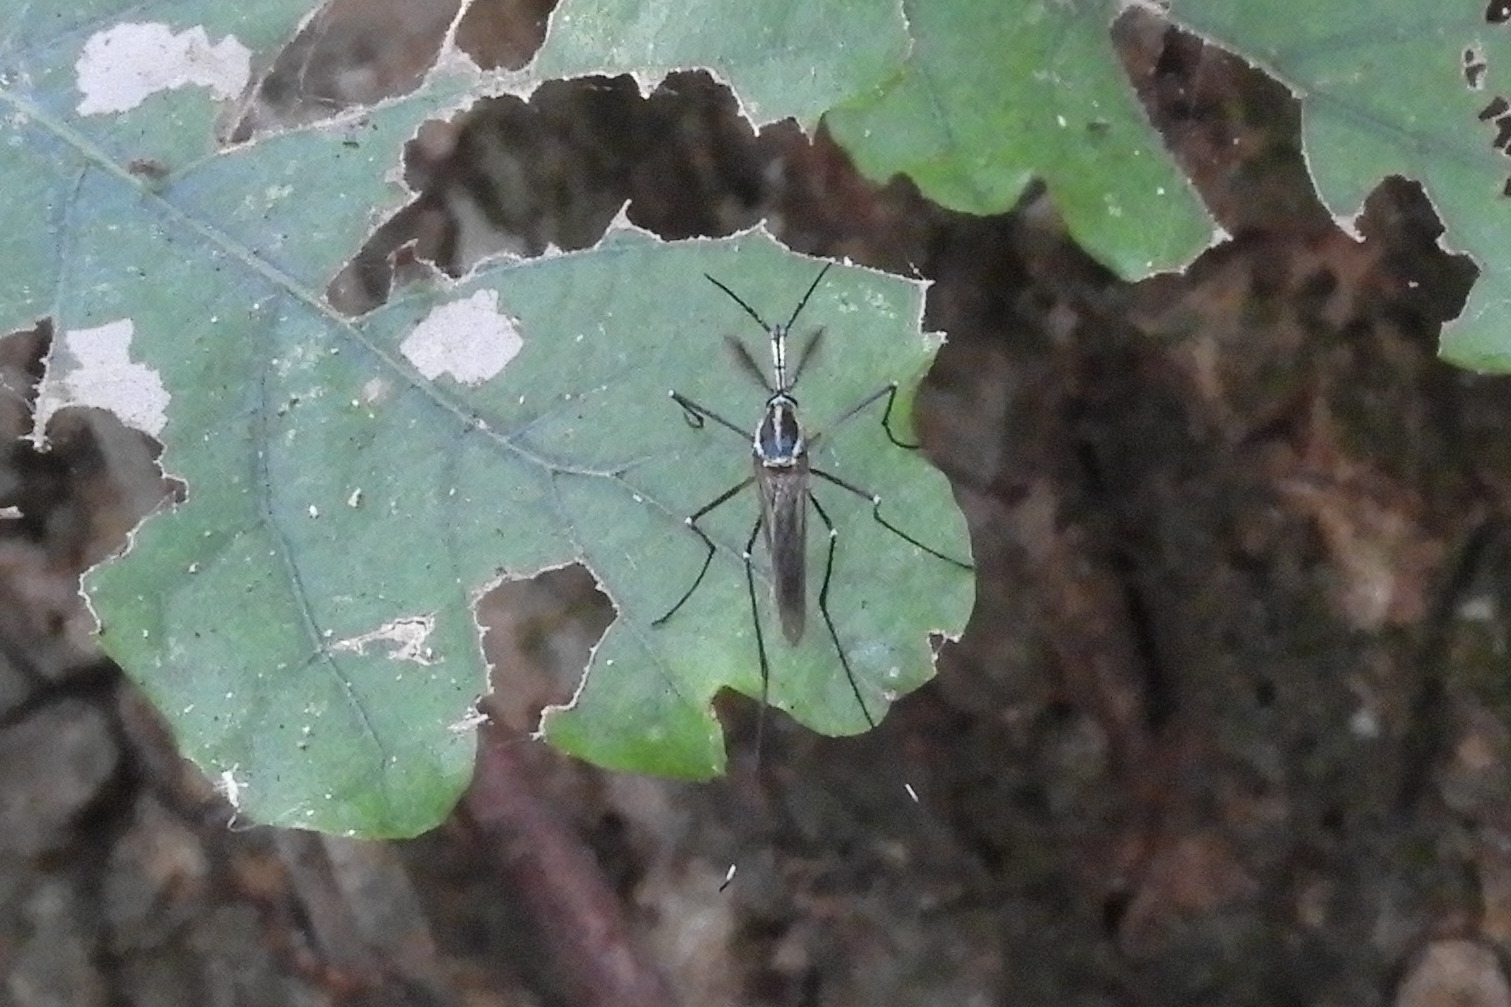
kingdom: Animalia
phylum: Arthropoda
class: Insecta
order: Diptera
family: Culicidae
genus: Toxorhynchites
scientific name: Toxorhynchites rutilus
